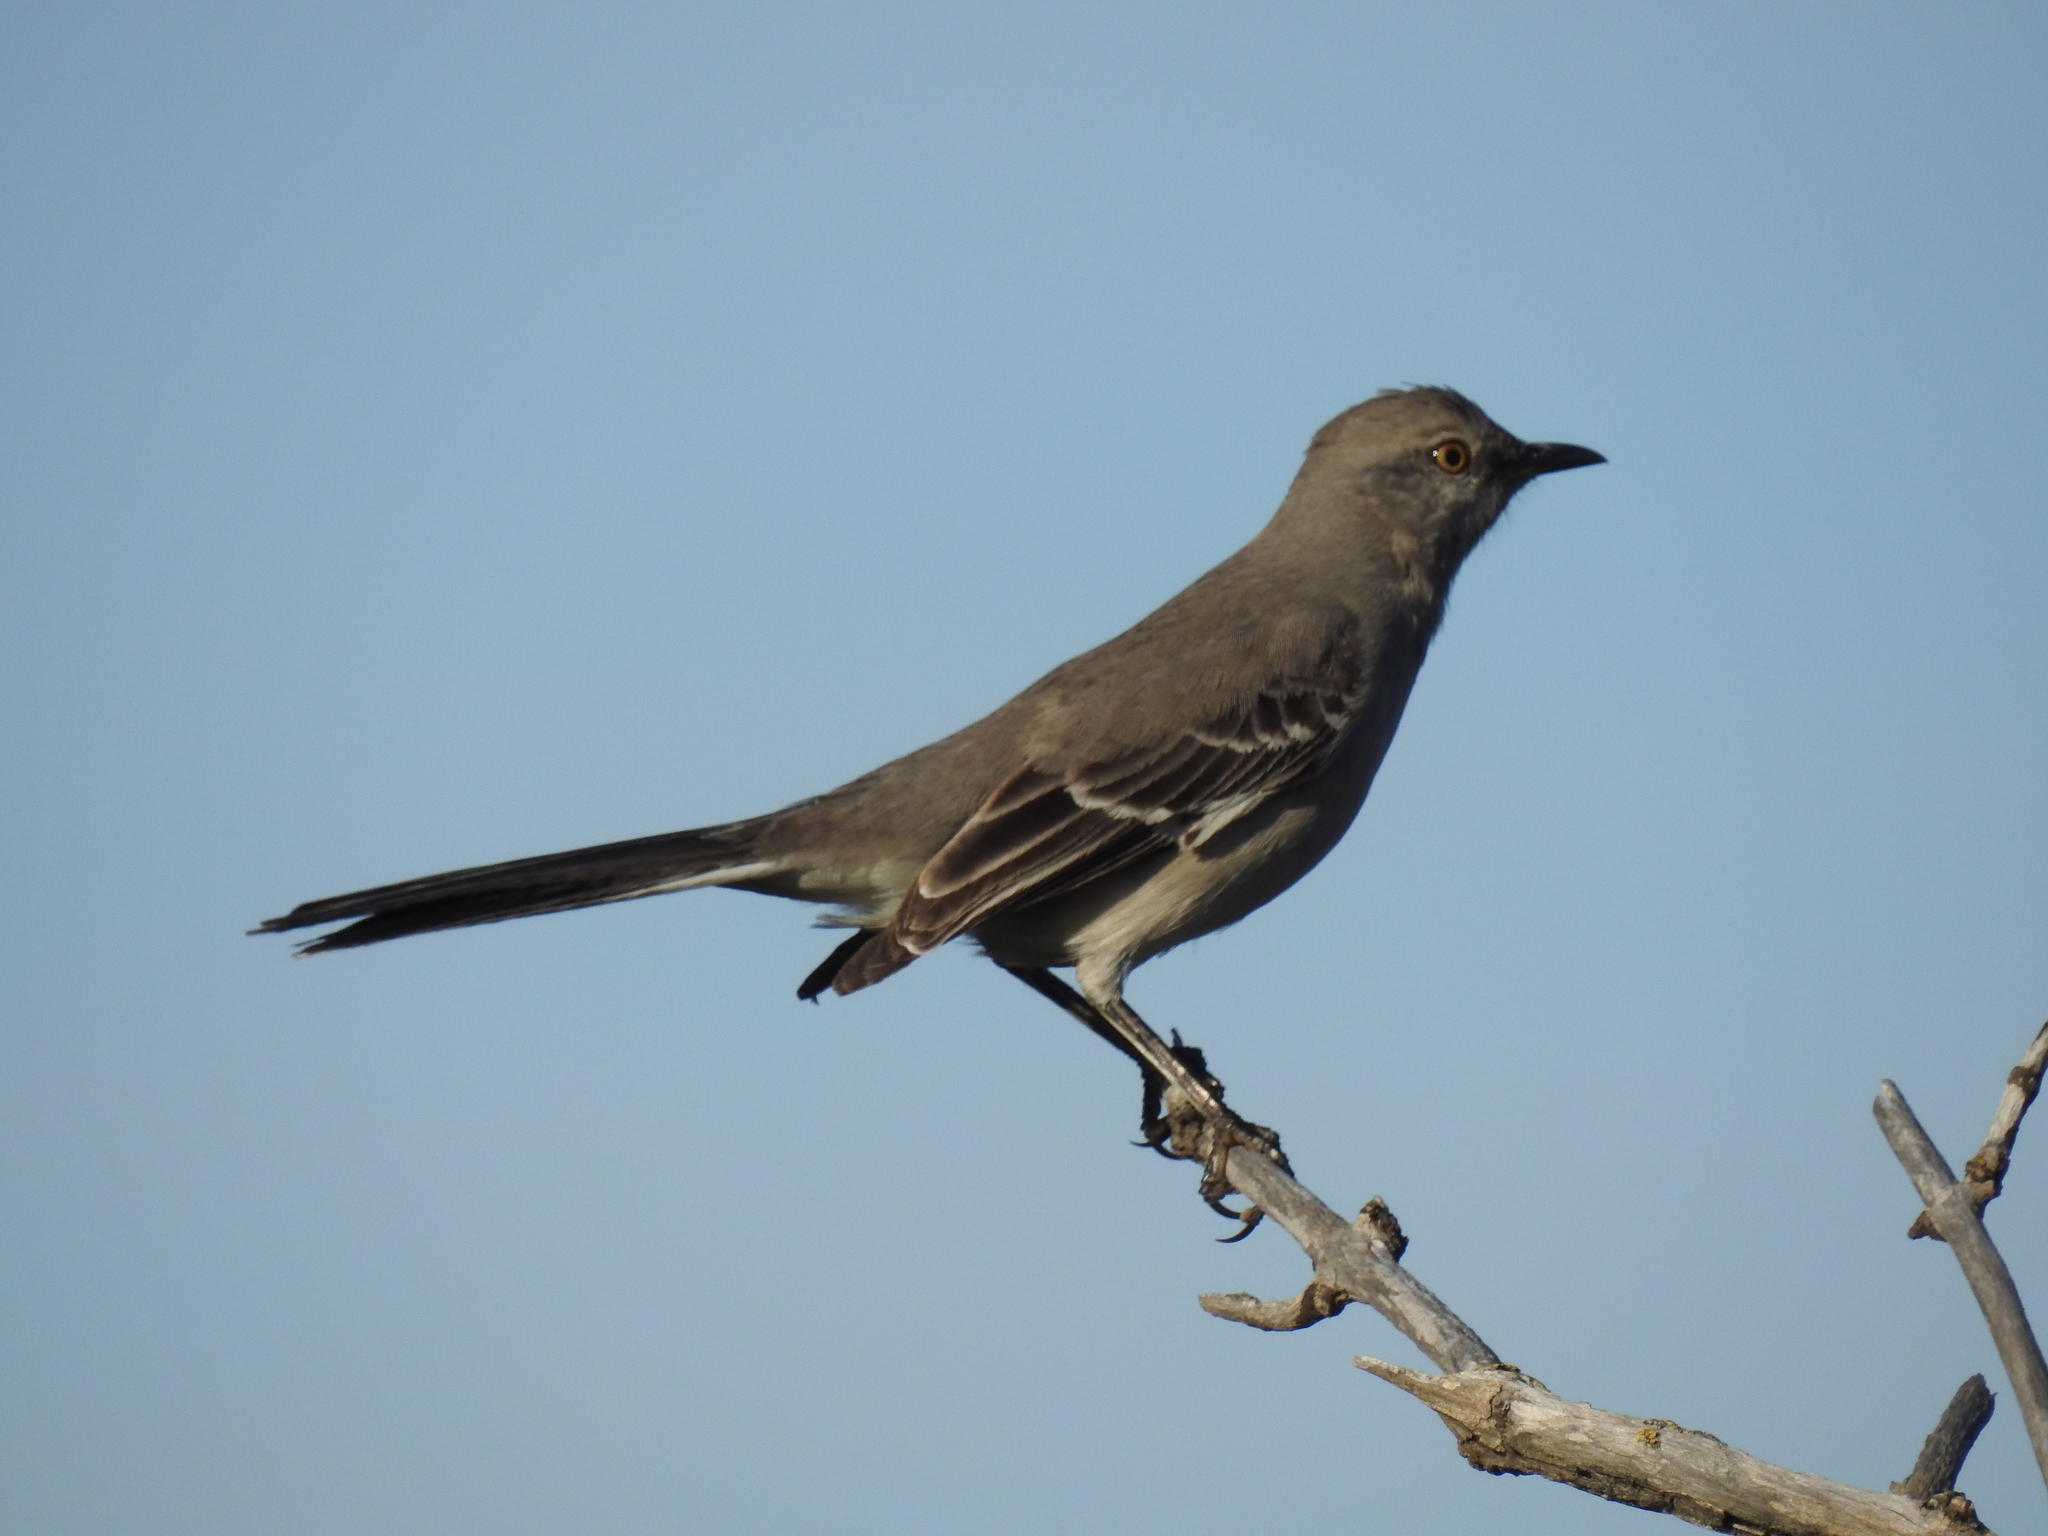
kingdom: Animalia
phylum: Chordata
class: Aves
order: Passeriformes
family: Mimidae
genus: Mimus
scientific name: Mimus polyglottos
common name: Northern mockingbird
